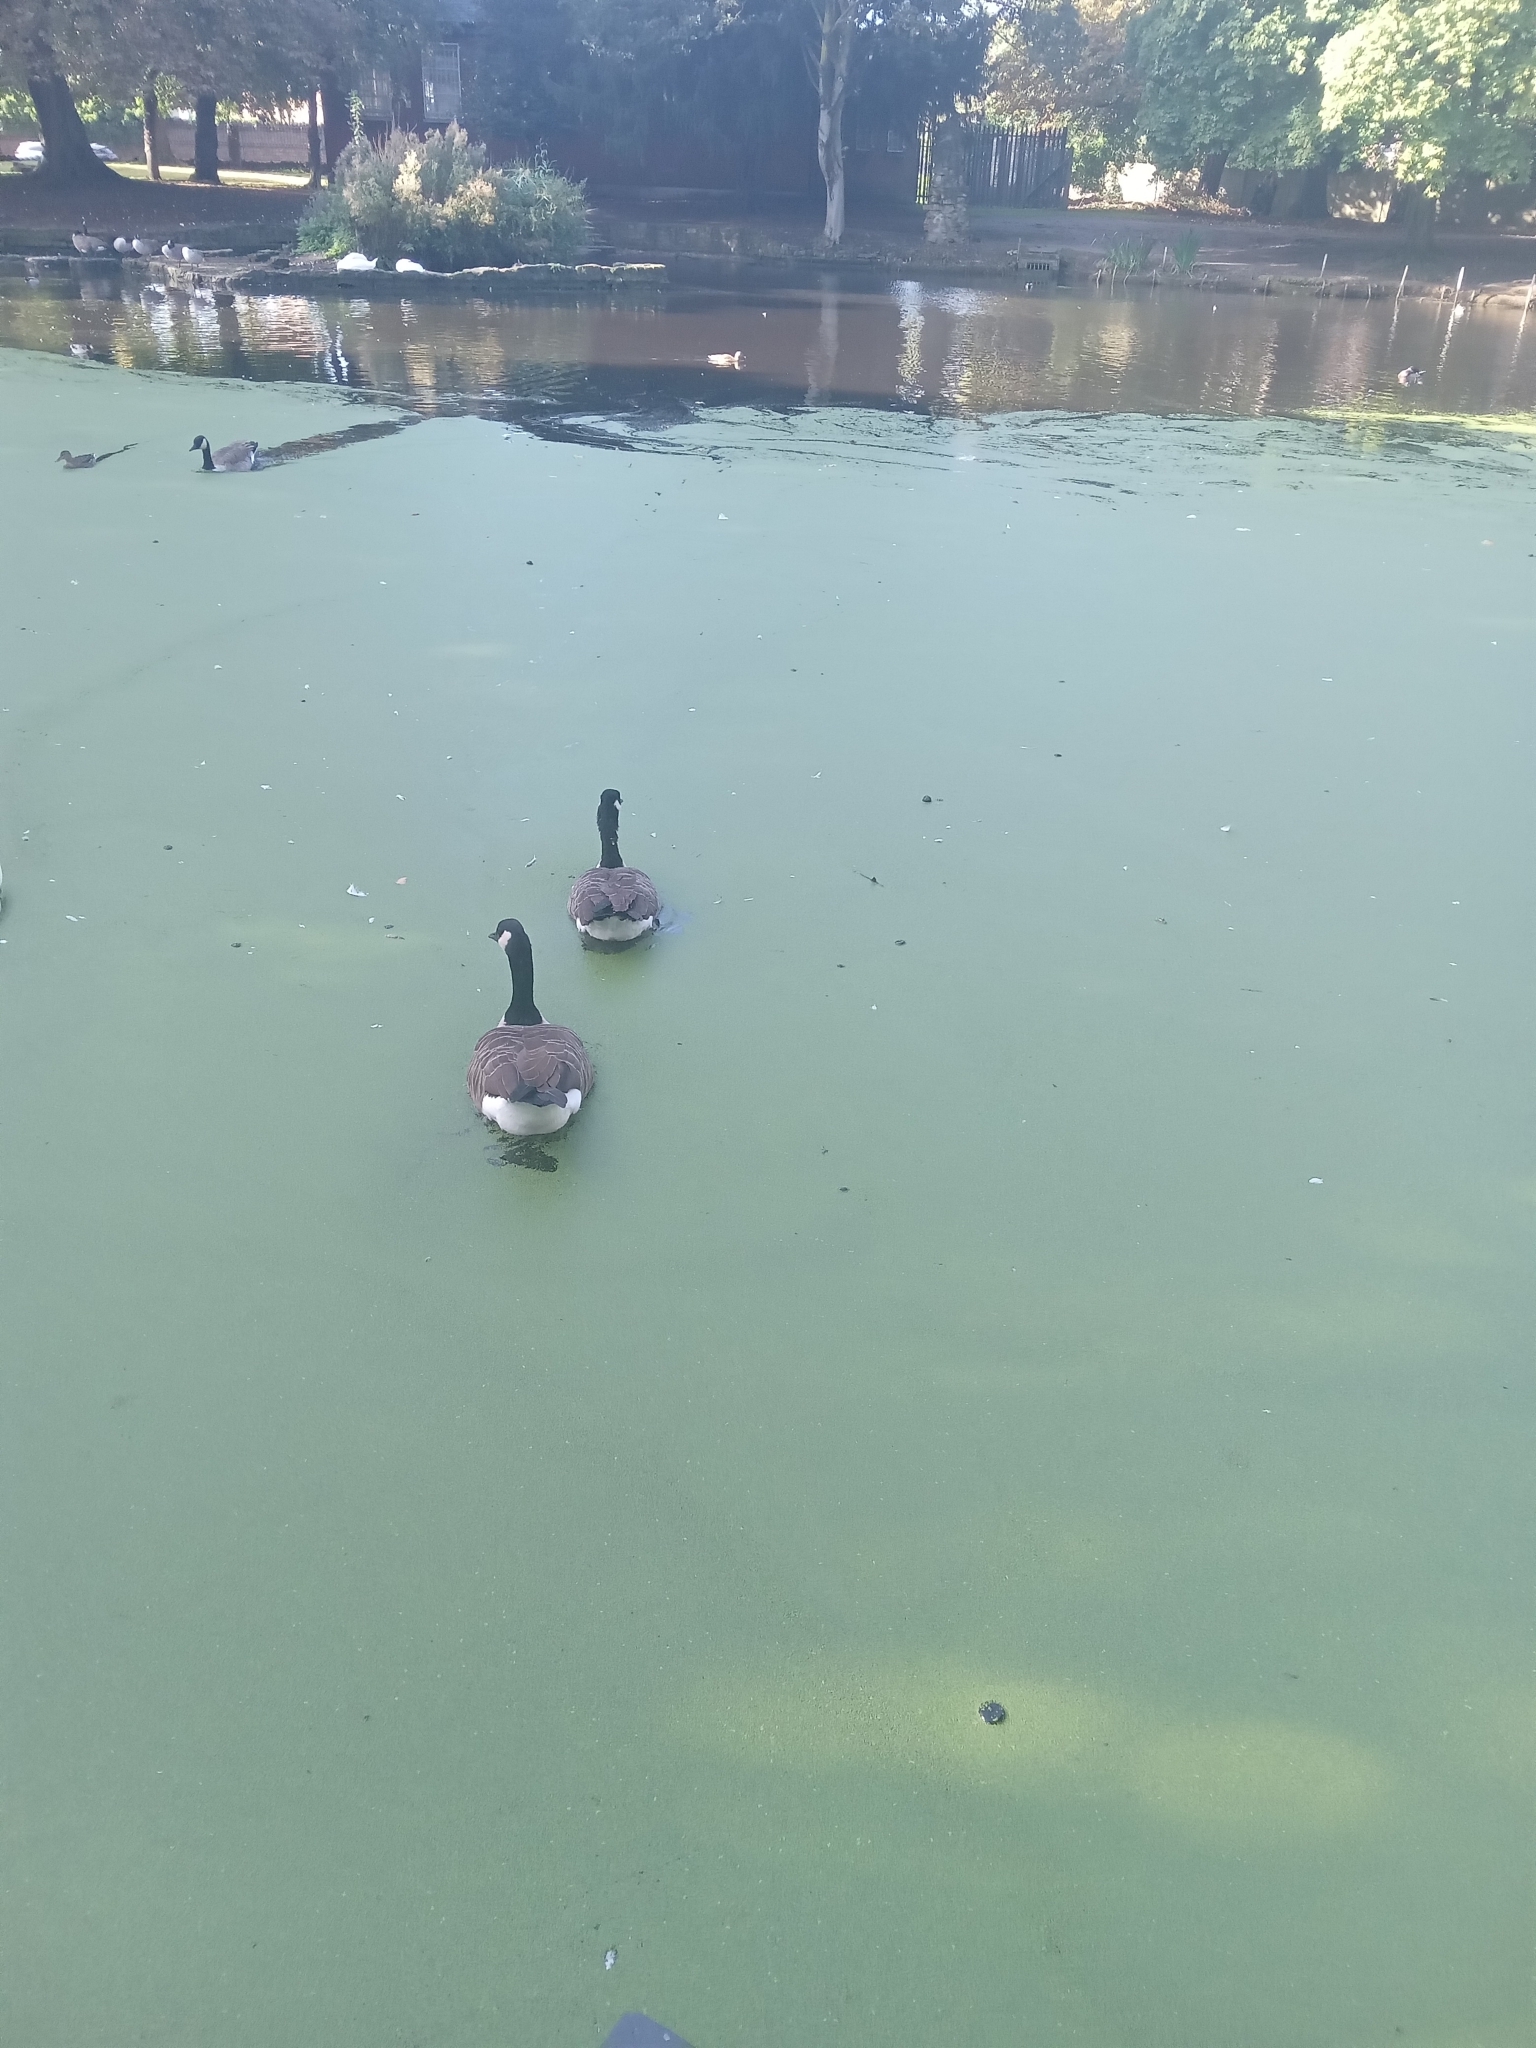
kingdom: Animalia
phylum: Chordata
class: Aves
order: Anseriformes
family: Anatidae
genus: Branta
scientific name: Branta canadensis
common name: Canada goose
